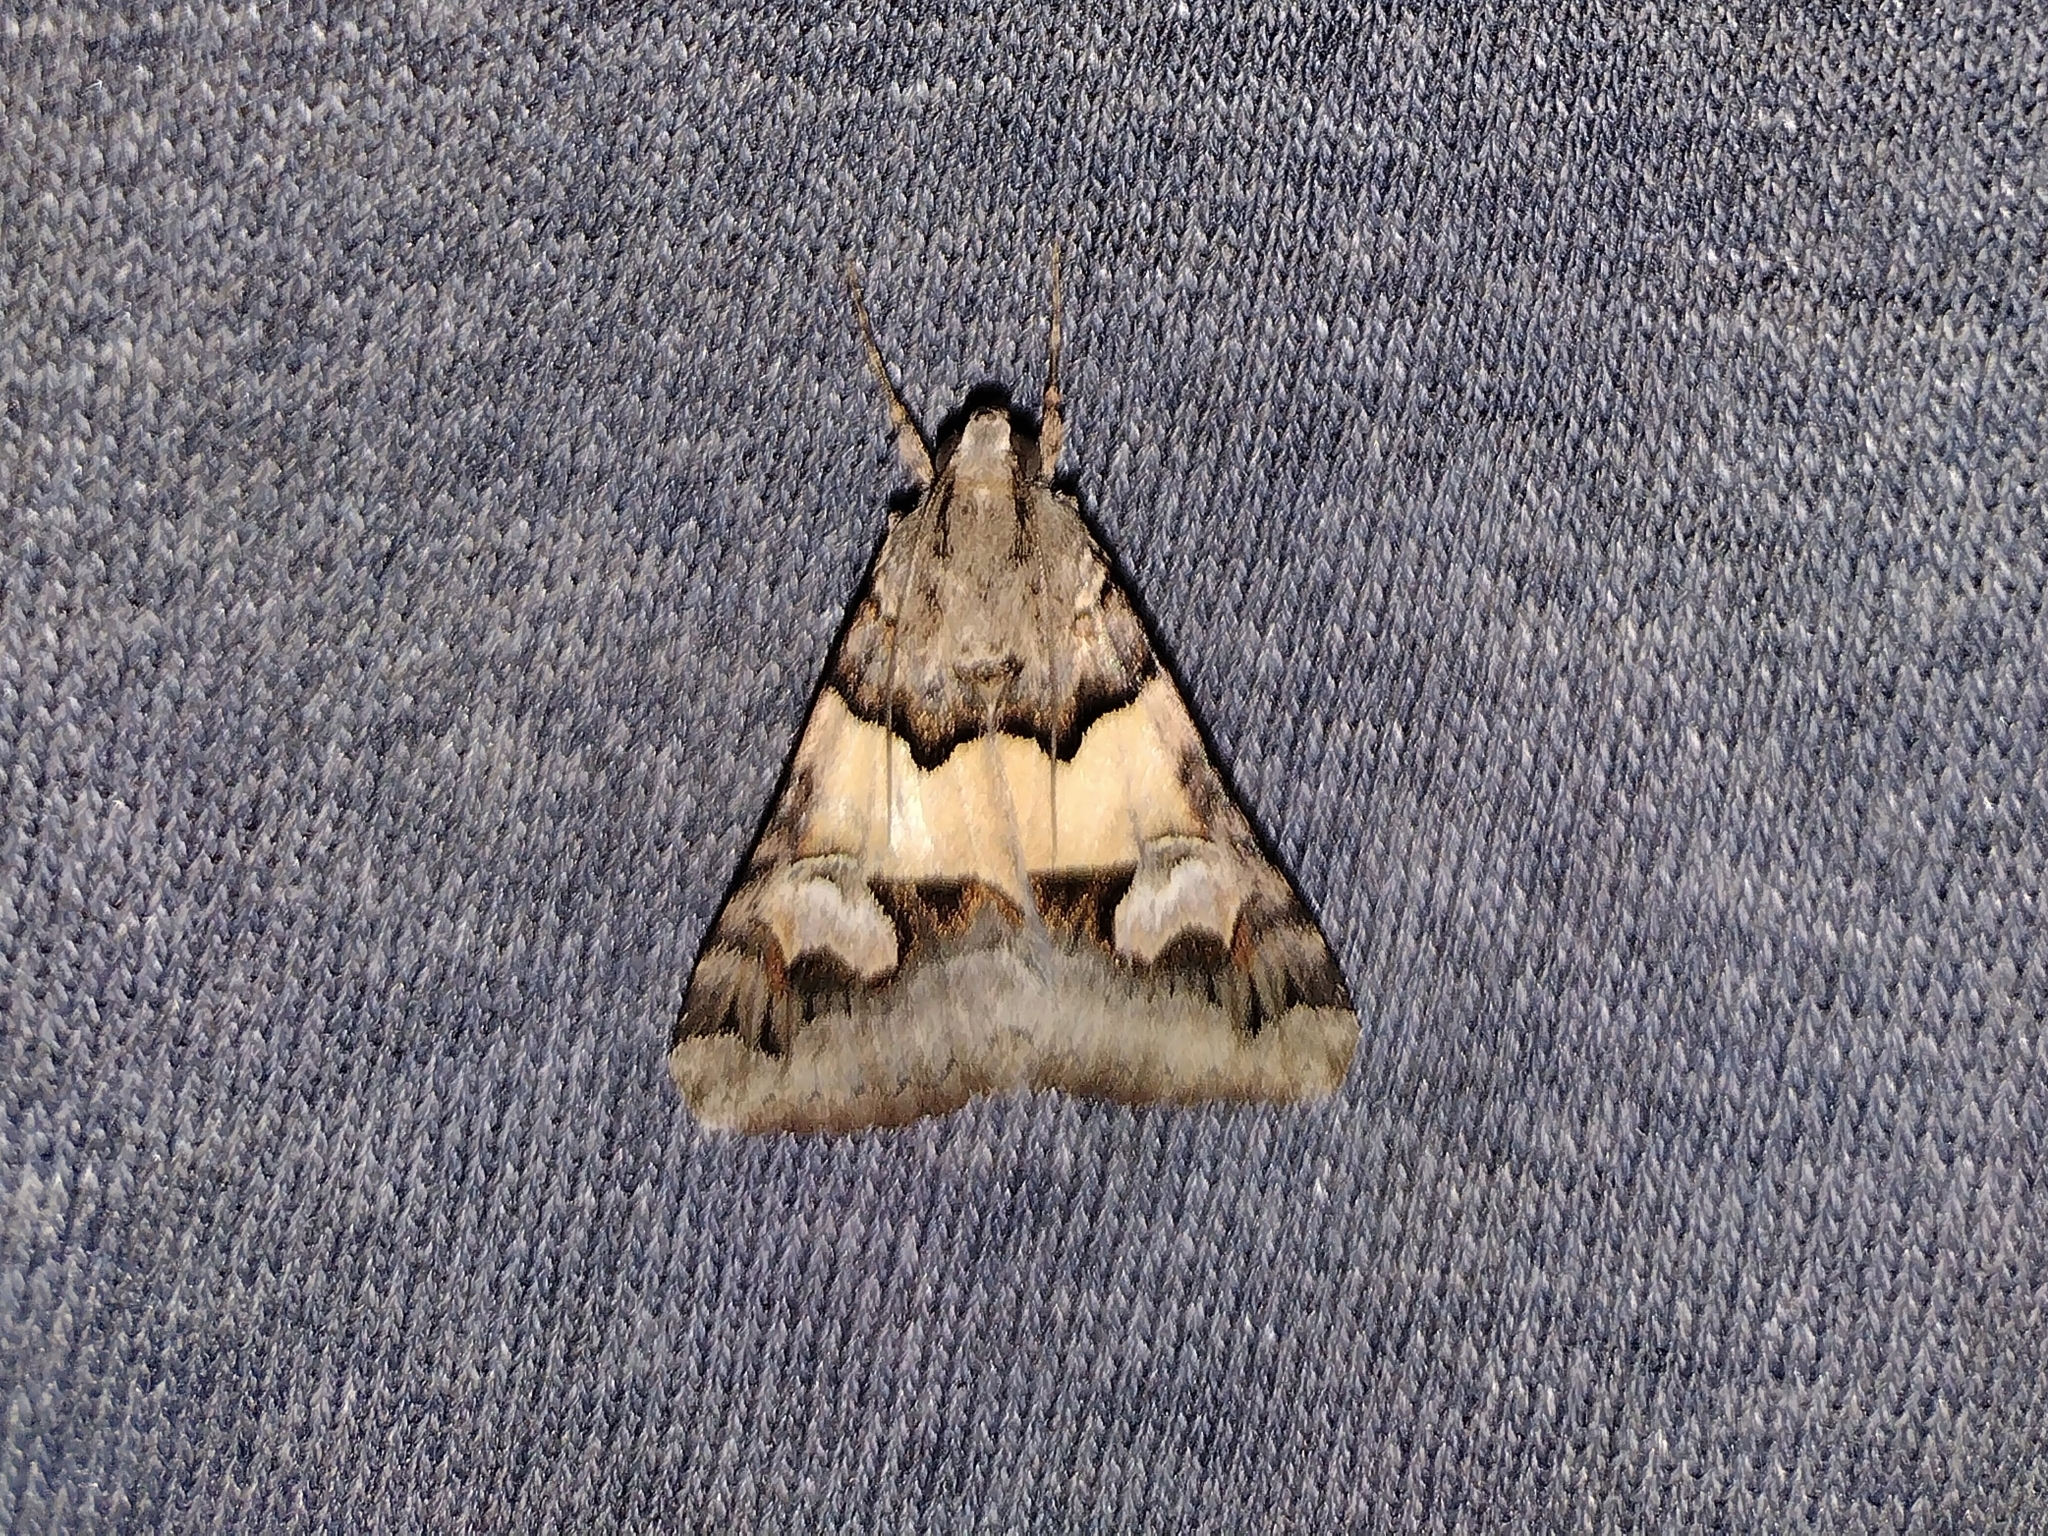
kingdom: Animalia
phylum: Arthropoda
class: Insecta
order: Lepidoptera
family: Erebidae
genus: Drasteria
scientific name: Drasteria fumosa
